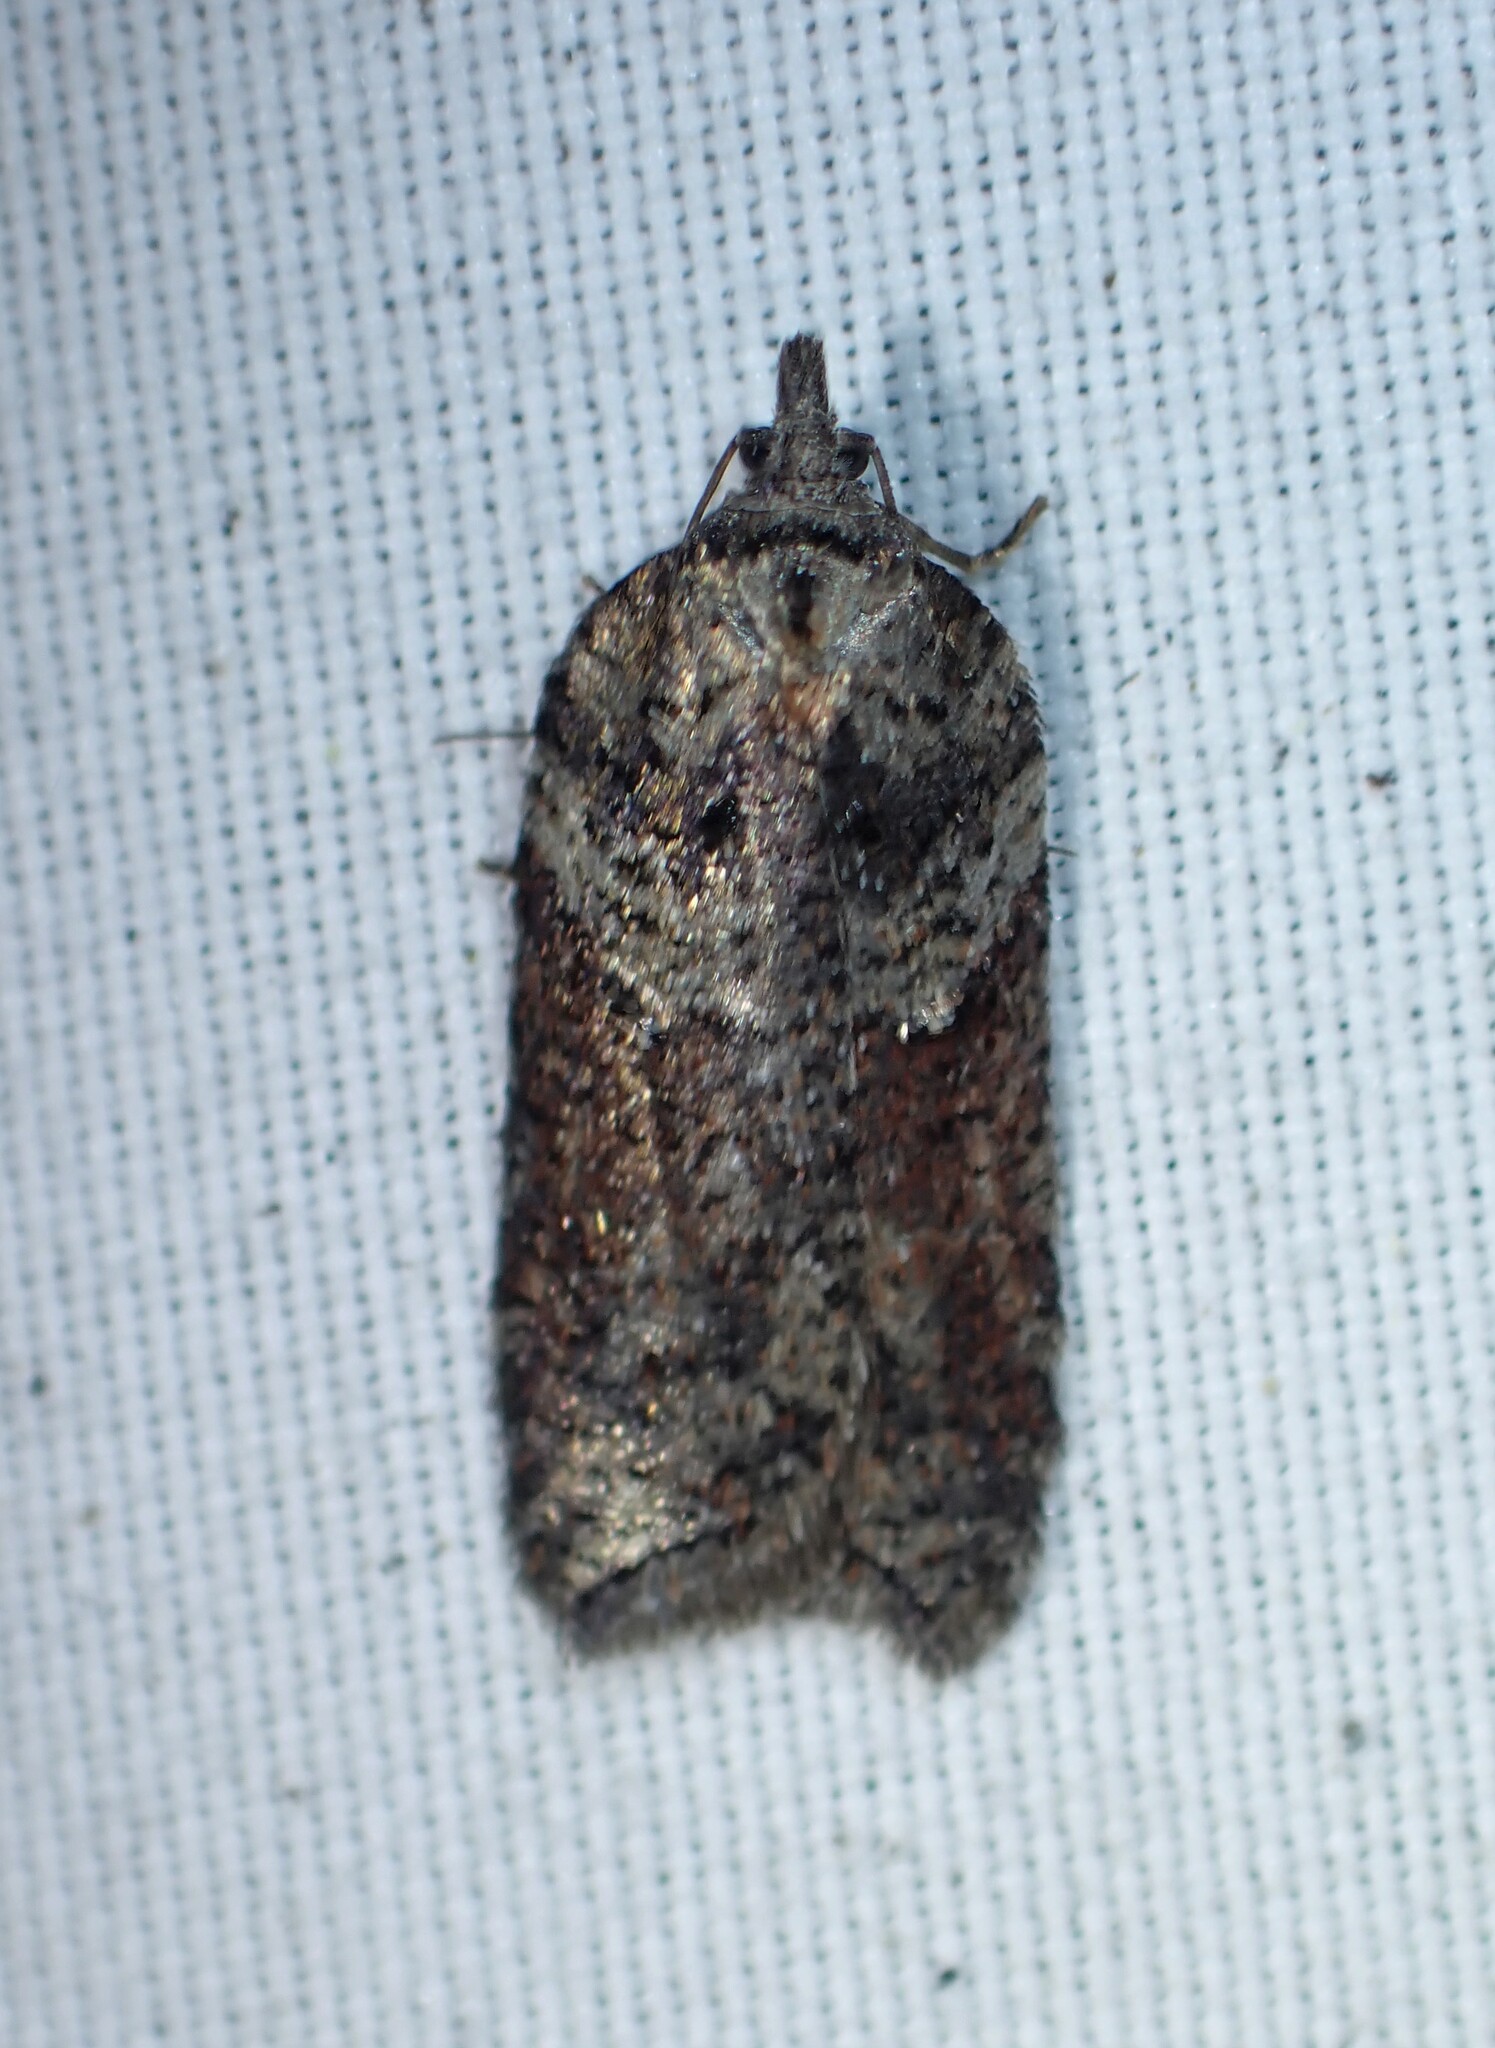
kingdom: Animalia
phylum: Arthropoda
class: Insecta
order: Lepidoptera
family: Tortricidae
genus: Acleris
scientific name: Acleris celiana
